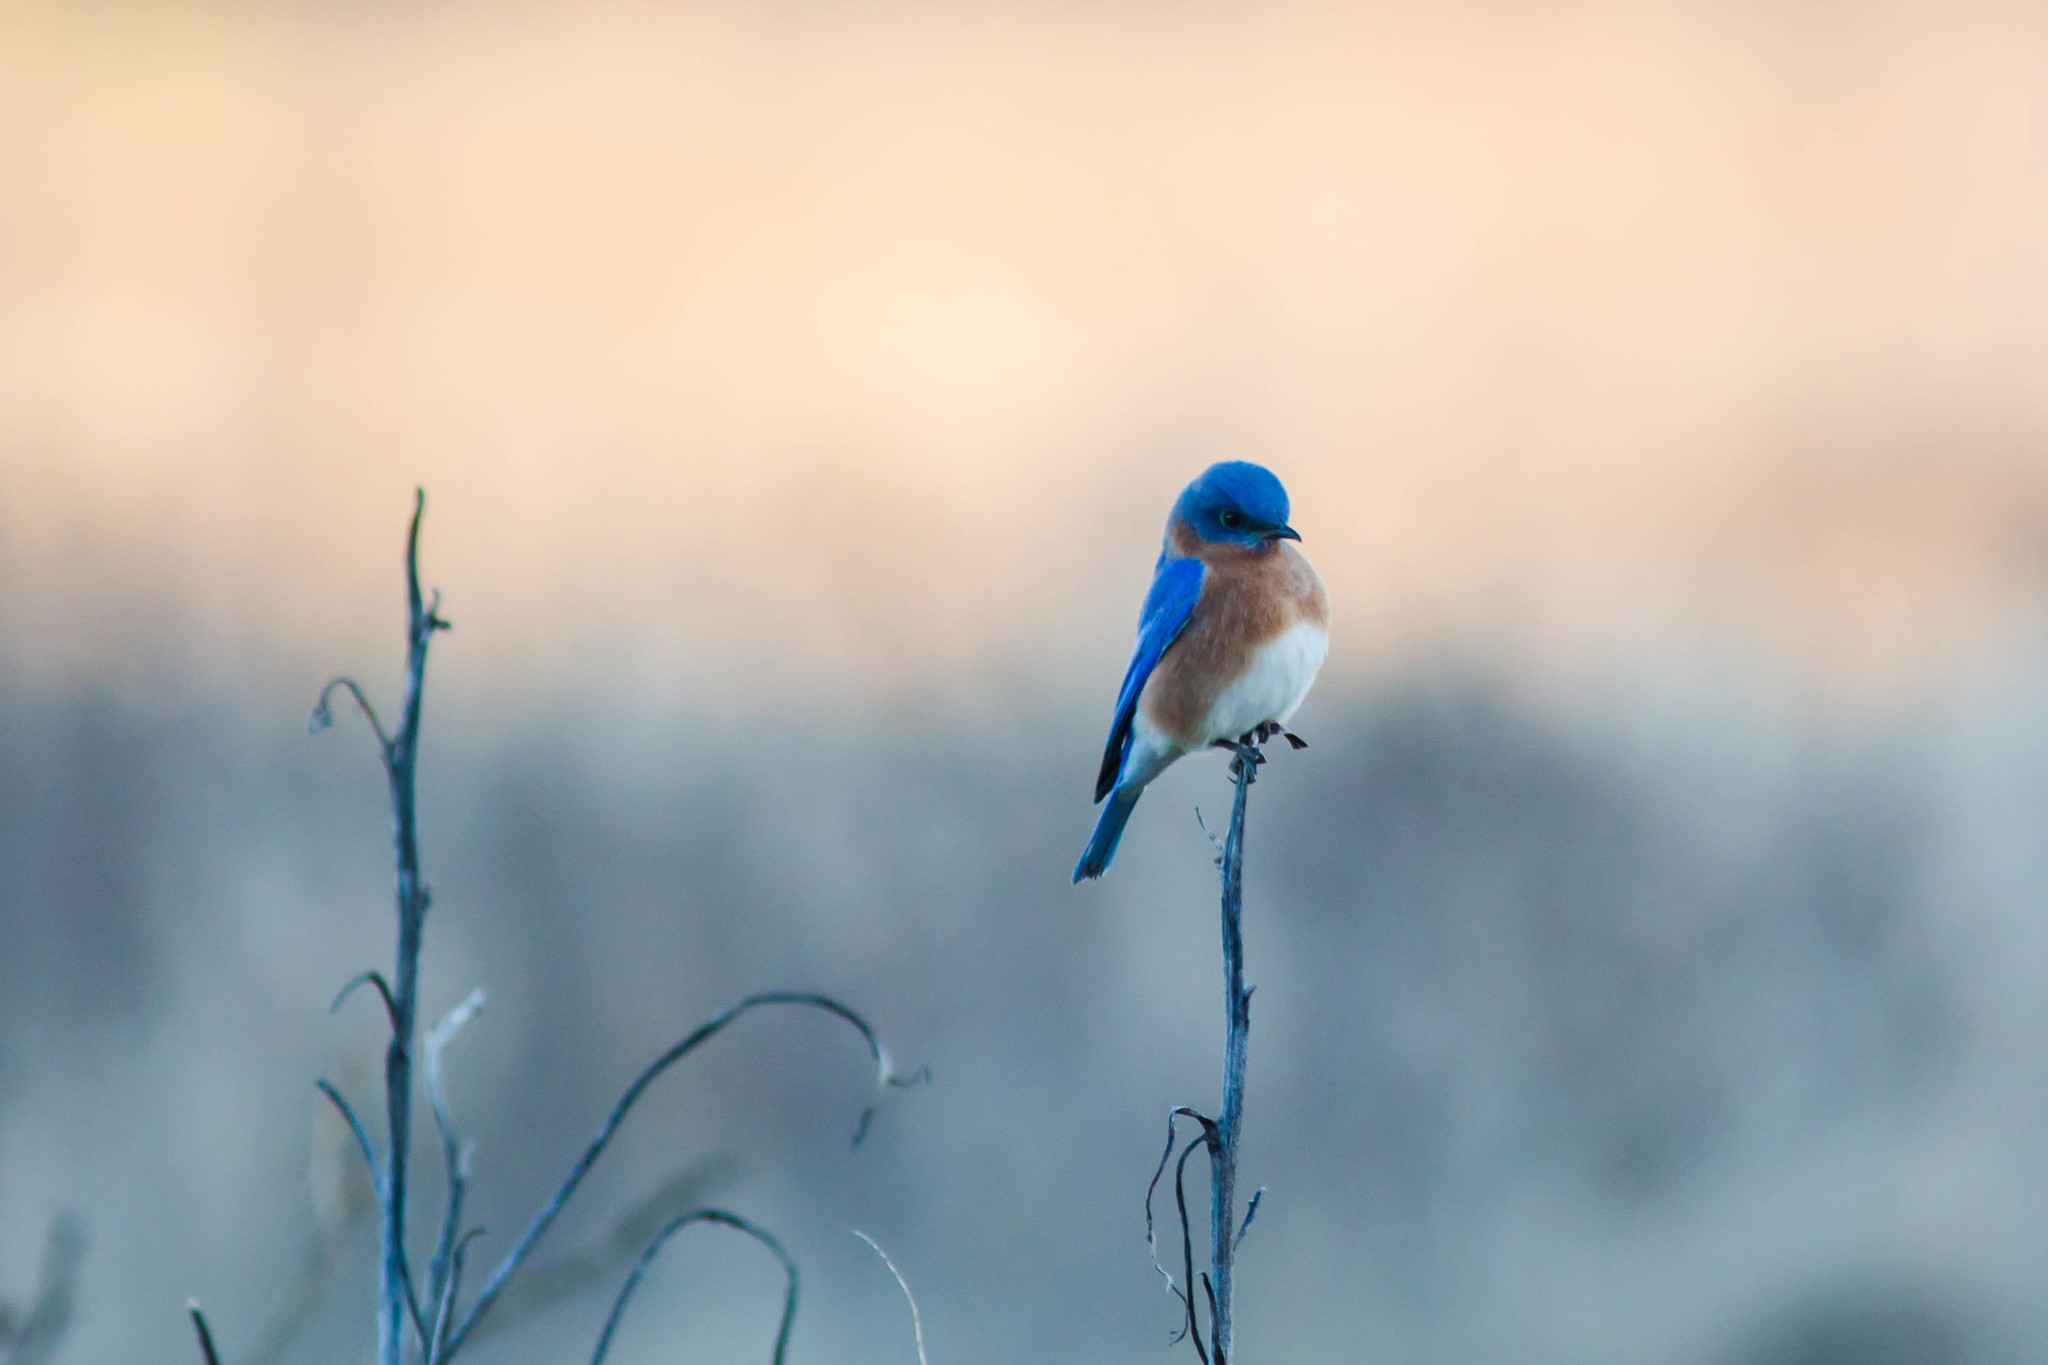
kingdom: Animalia
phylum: Chordata
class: Aves
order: Passeriformes
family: Turdidae
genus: Sialia
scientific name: Sialia sialis
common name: Eastern bluebird
